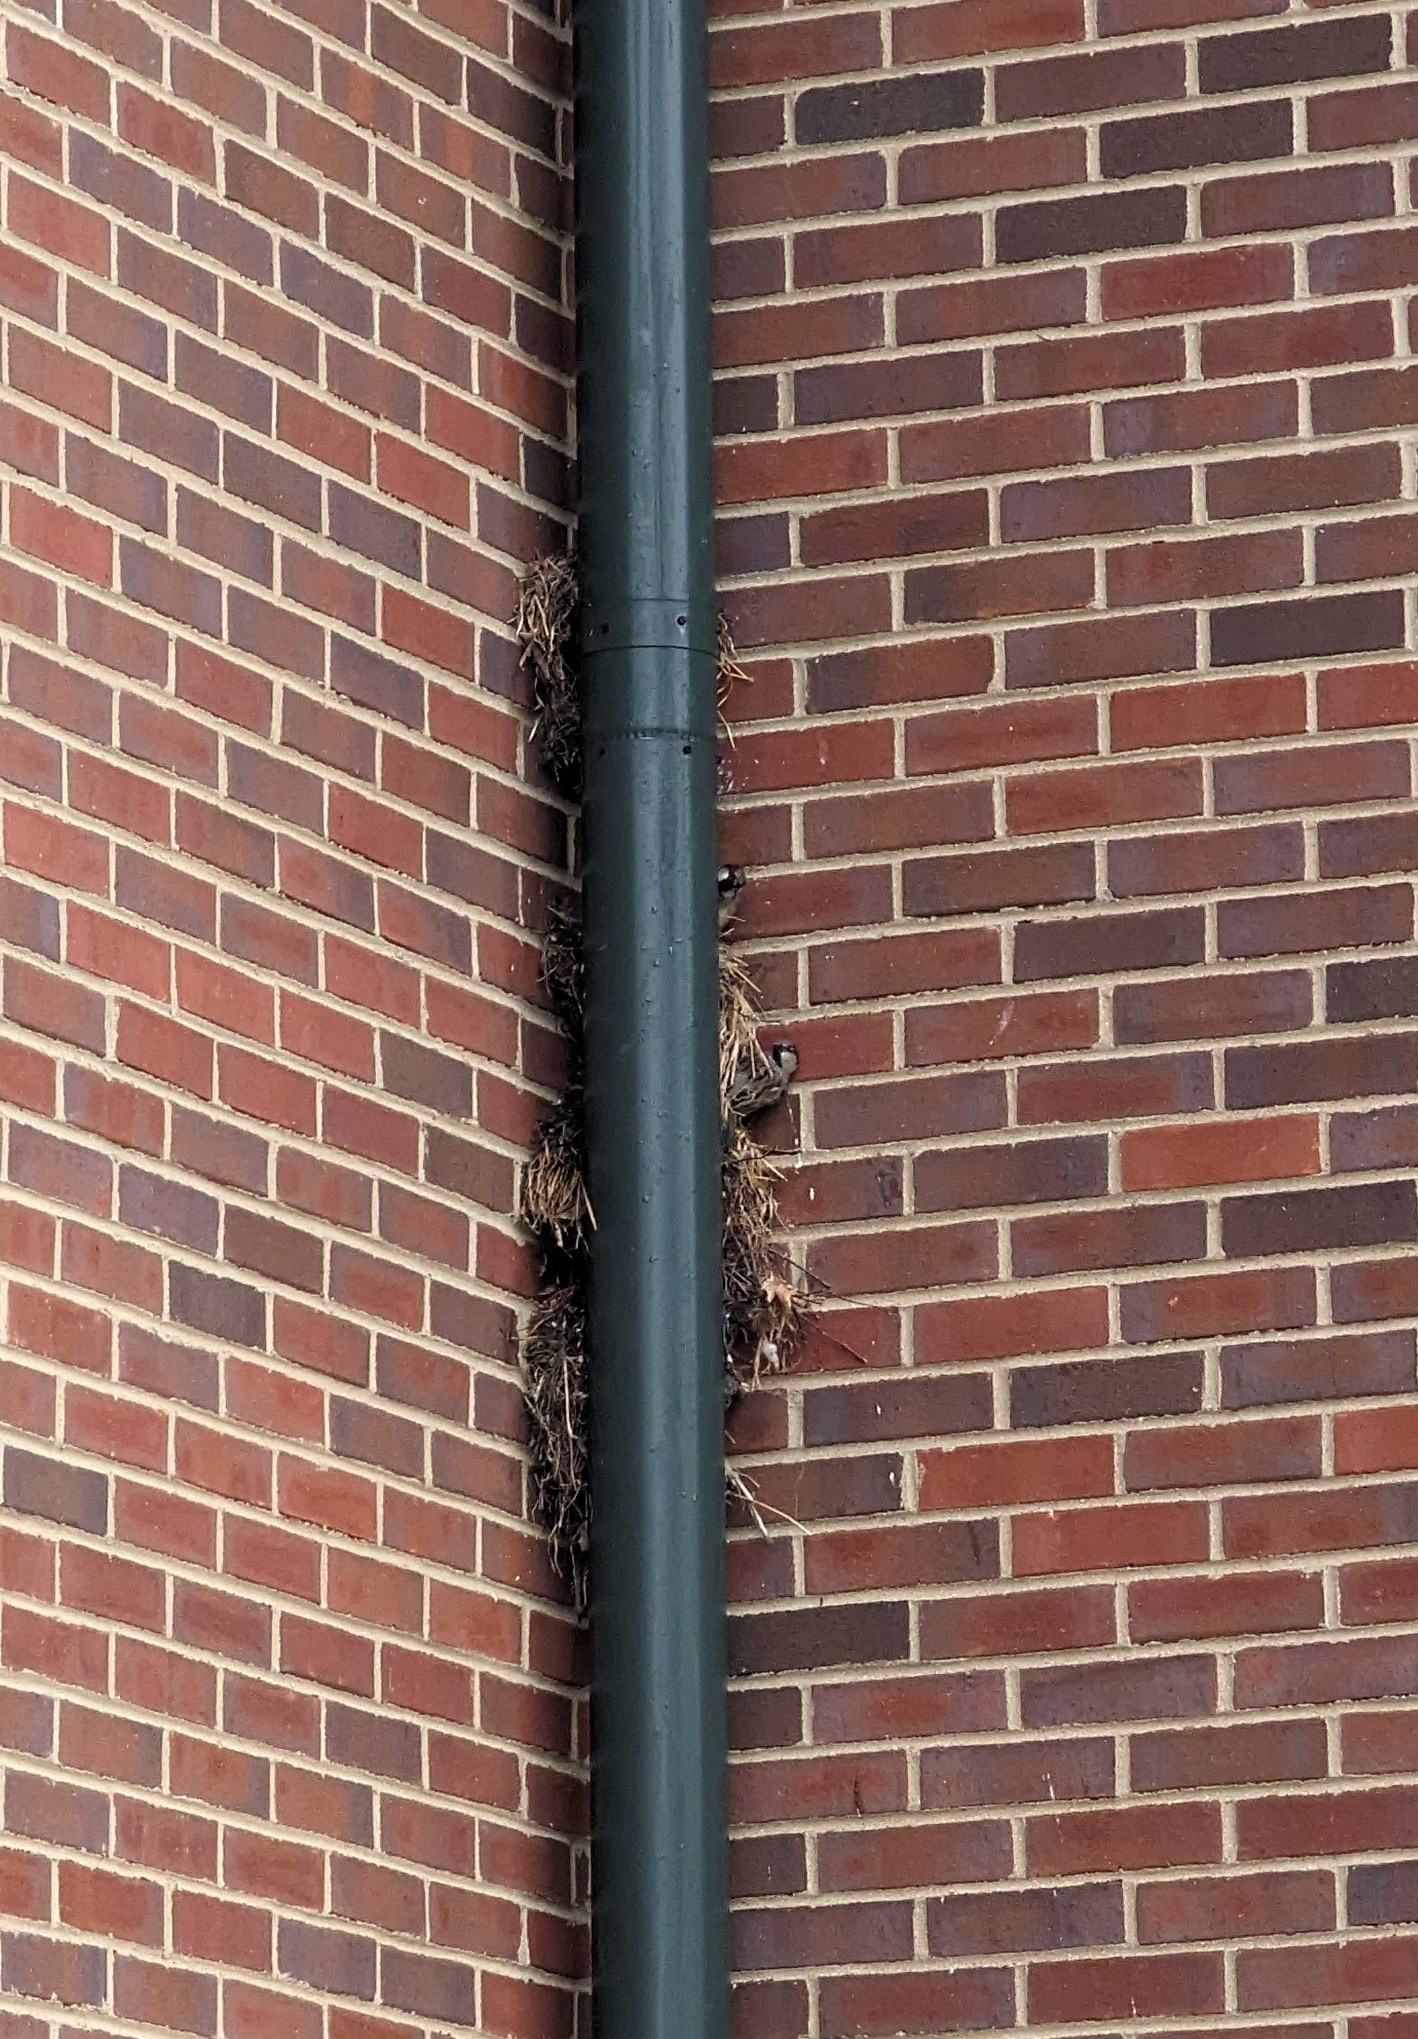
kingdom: Animalia
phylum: Chordata
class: Aves
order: Passeriformes
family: Passeridae
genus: Passer
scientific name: Passer domesticus
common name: House sparrow
